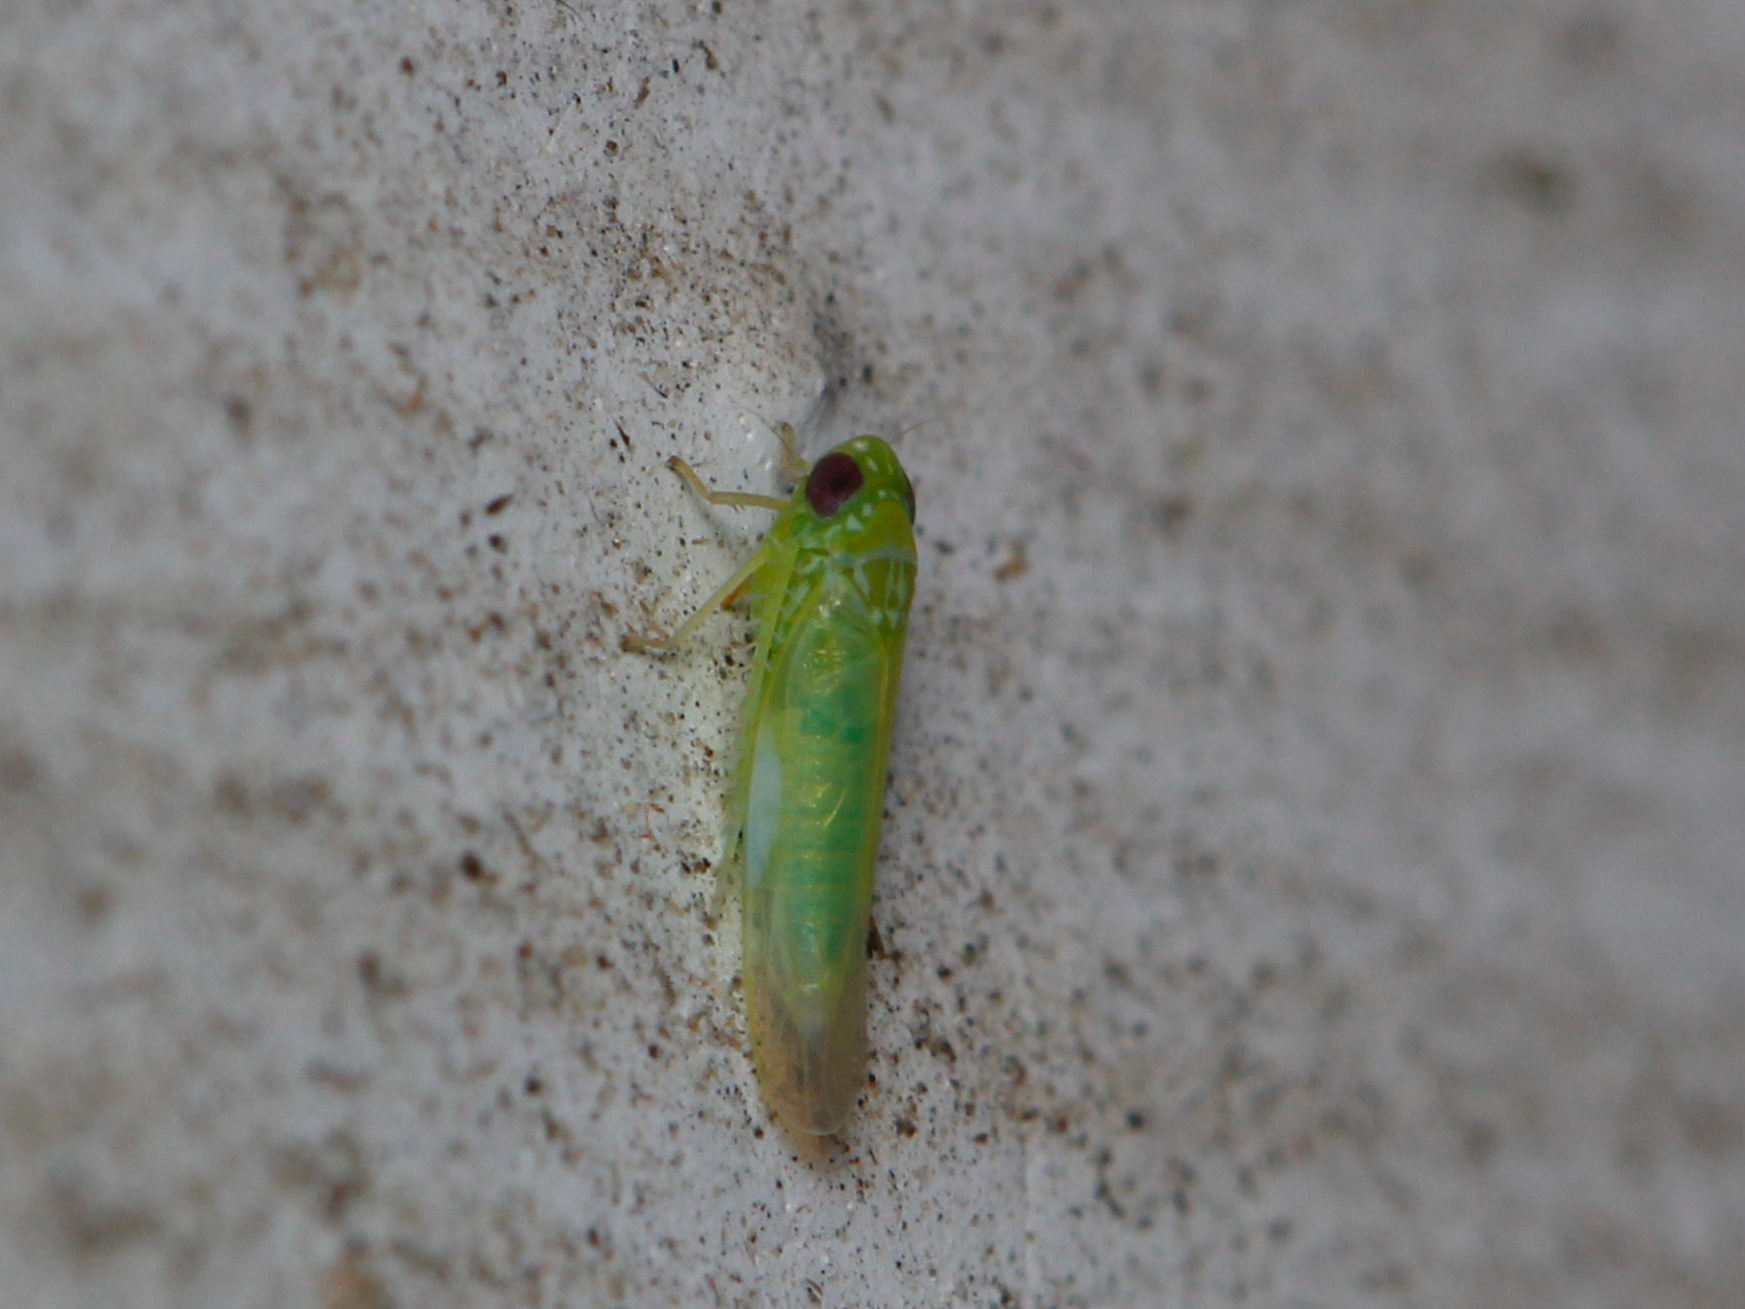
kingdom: Animalia
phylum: Arthropoda
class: Insecta
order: Hemiptera
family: Cicadellidae
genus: Empoasca
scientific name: Empoasca fabae
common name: Potato leafhopper
